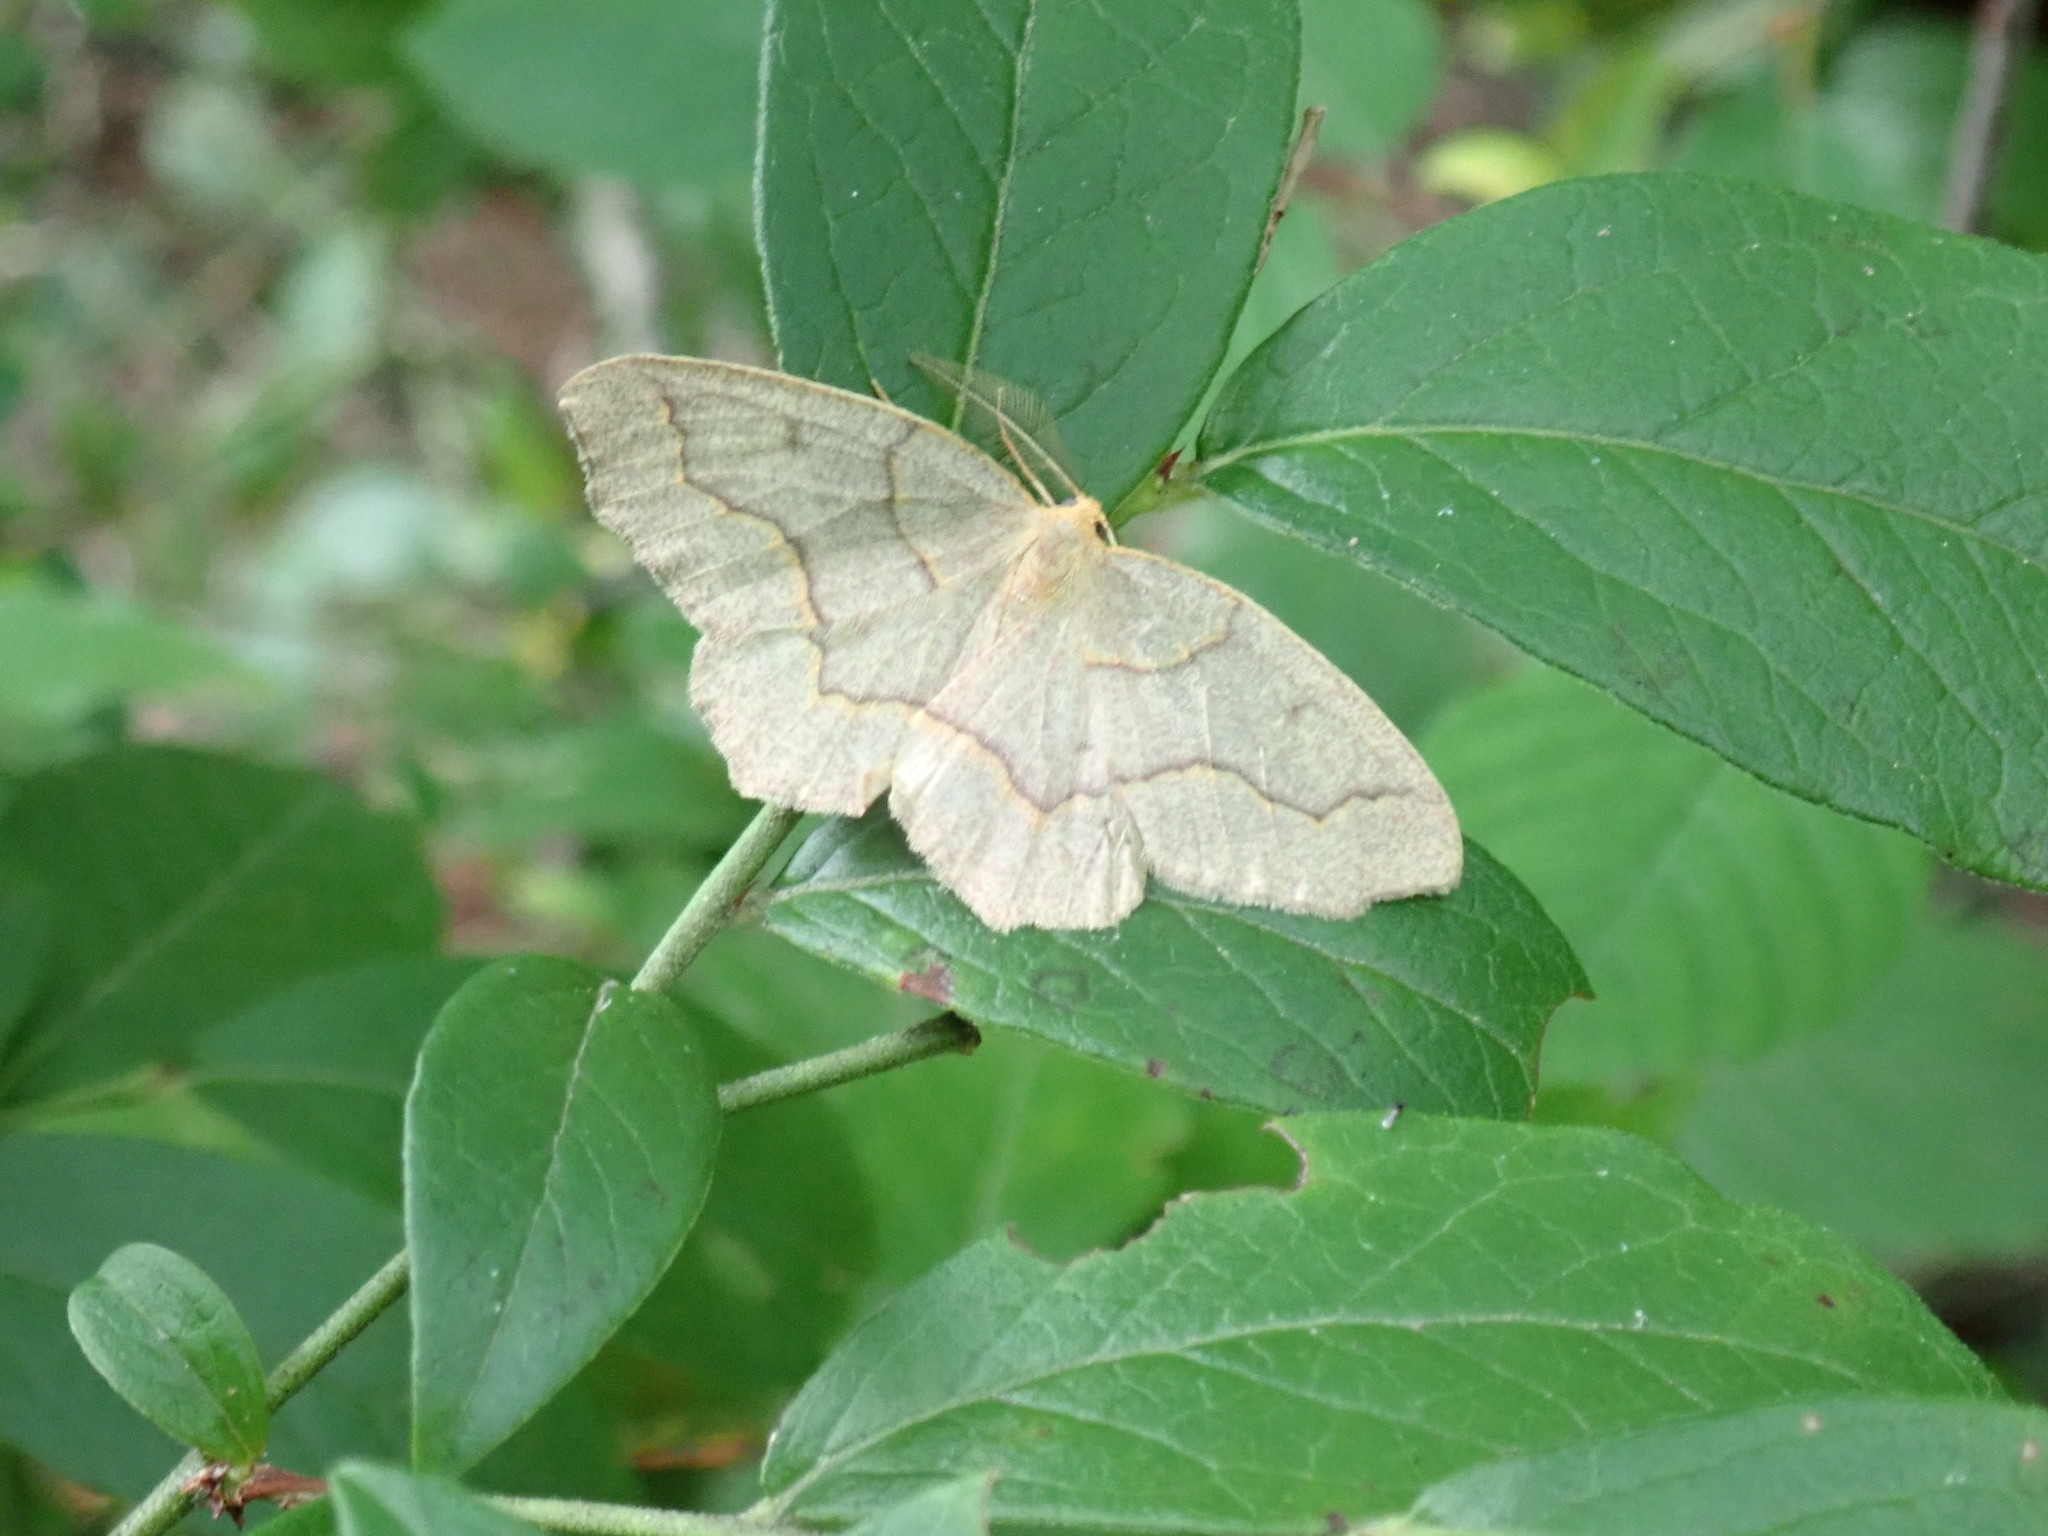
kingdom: Animalia
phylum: Arthropoda
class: Insecta
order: Lepidoptera
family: Geometridae
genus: Lambdina
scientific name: Lambdina fiscellaria
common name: Hemlock looper
